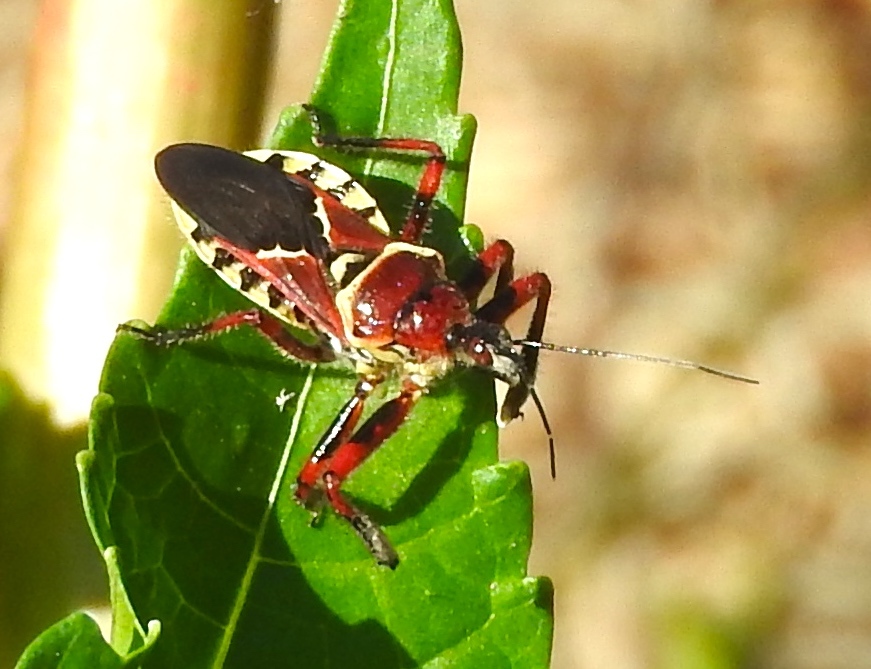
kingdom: Animalia
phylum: Arthropoda
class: Insecta
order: Hemiptera
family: Reduviidae
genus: Apiomerus
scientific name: Apiomerus flaviventris
